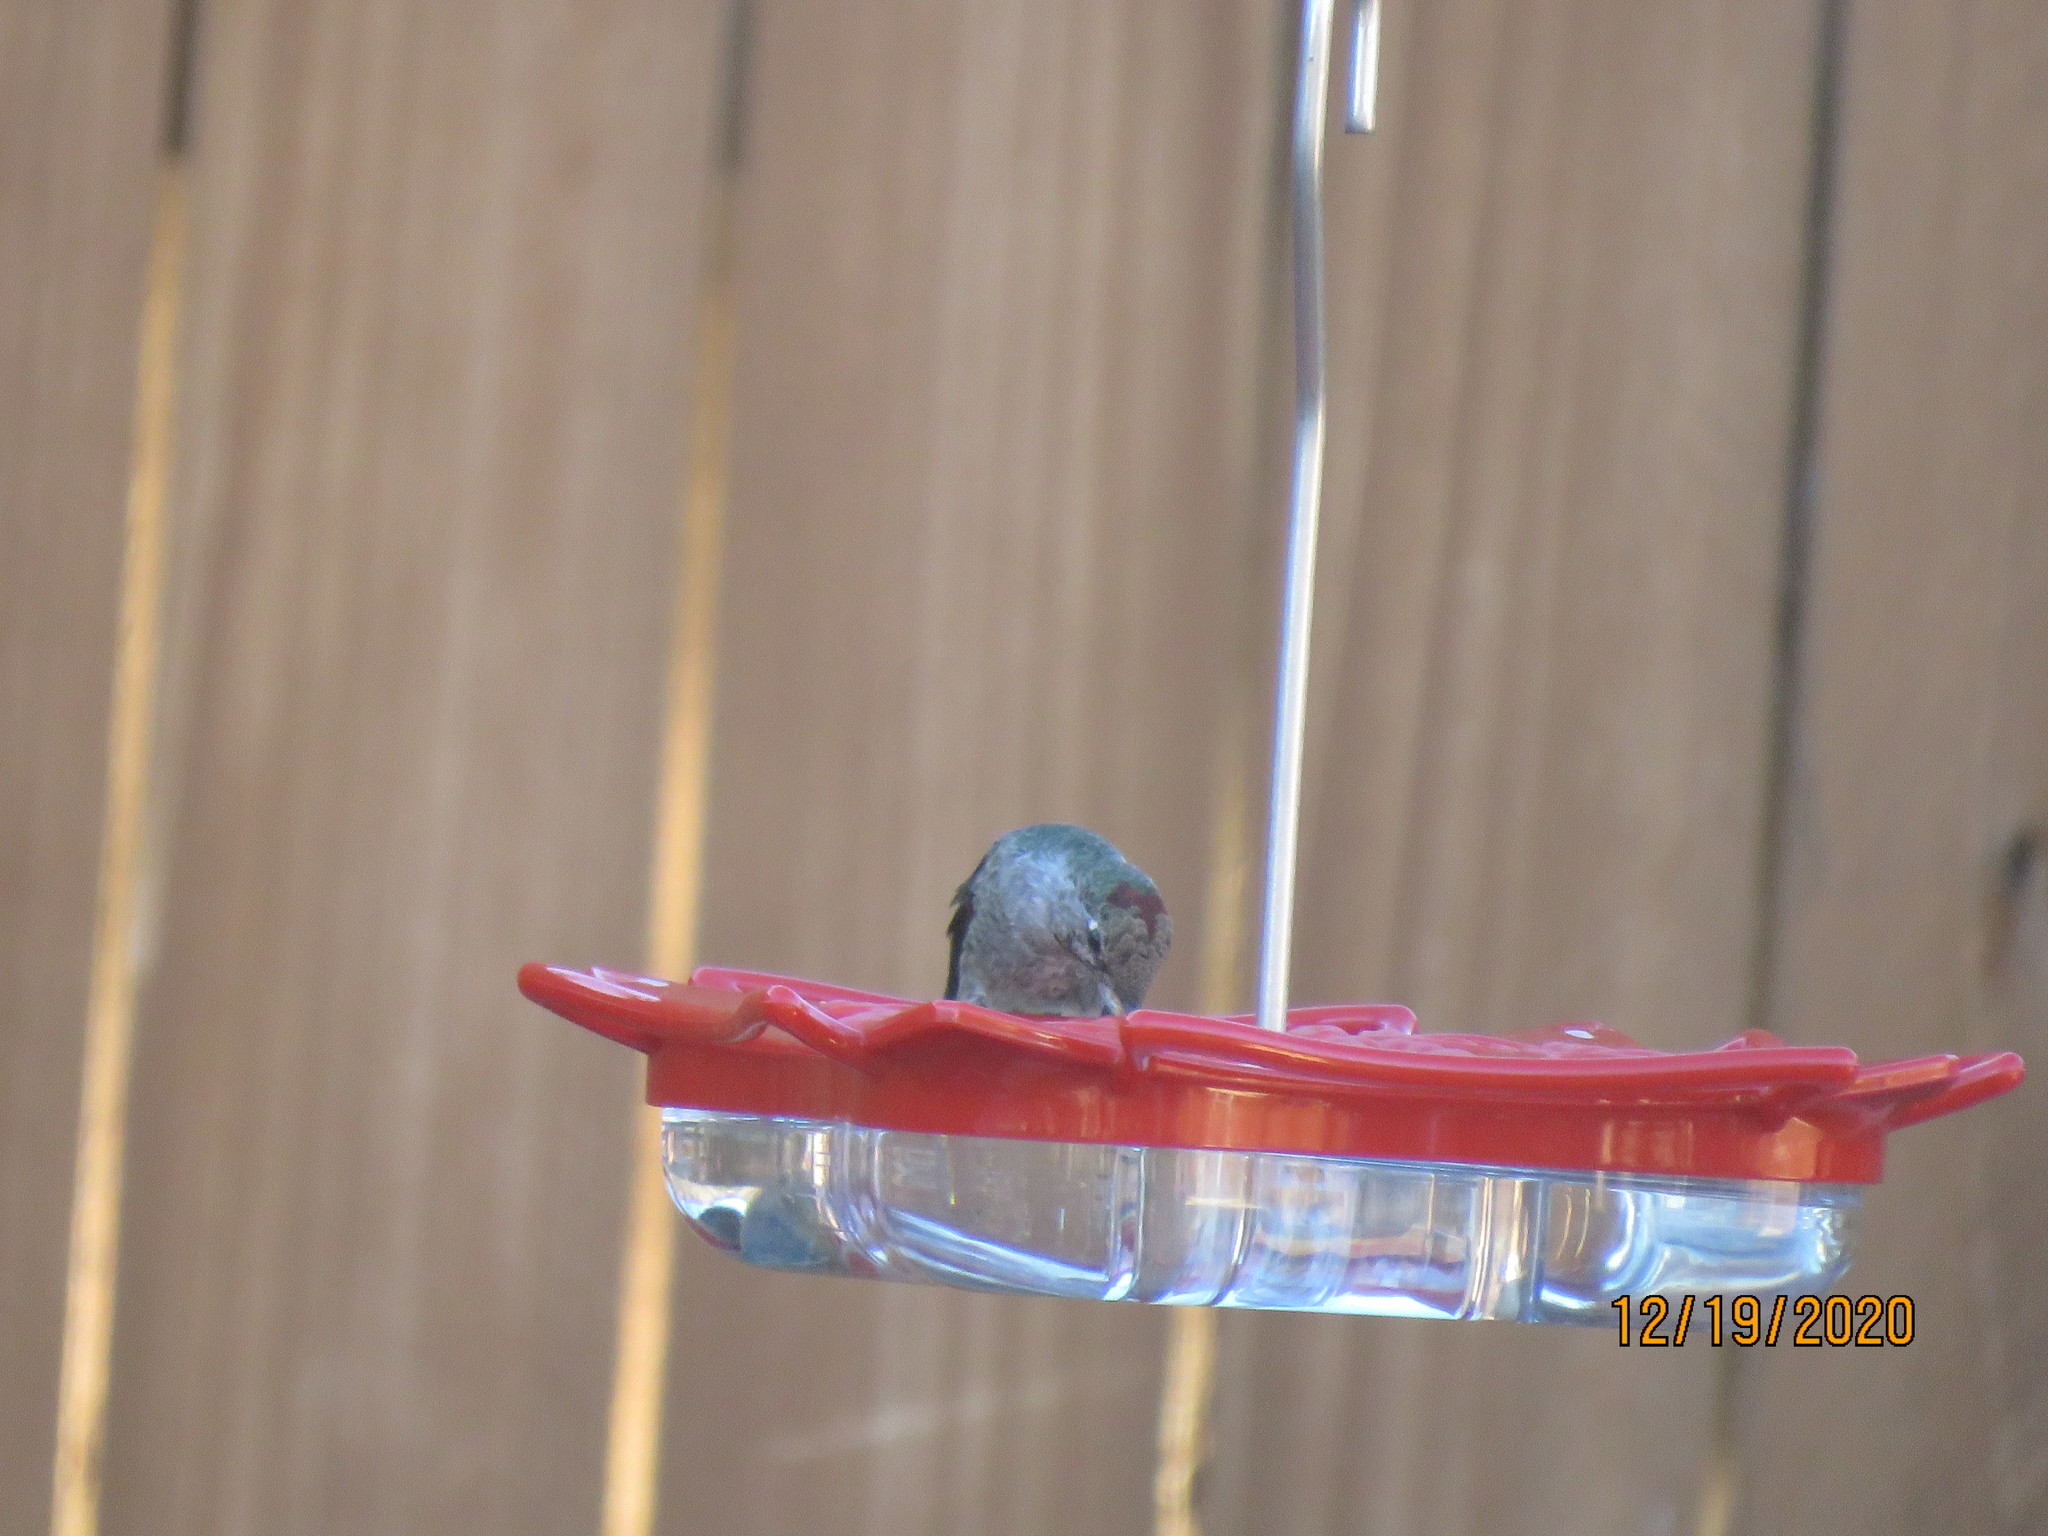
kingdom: Animalia
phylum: Chordata
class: Aves
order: Apodiformes
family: Trochilidae
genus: Calypte
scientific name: Calypte anna
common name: Anna's hummingbird
